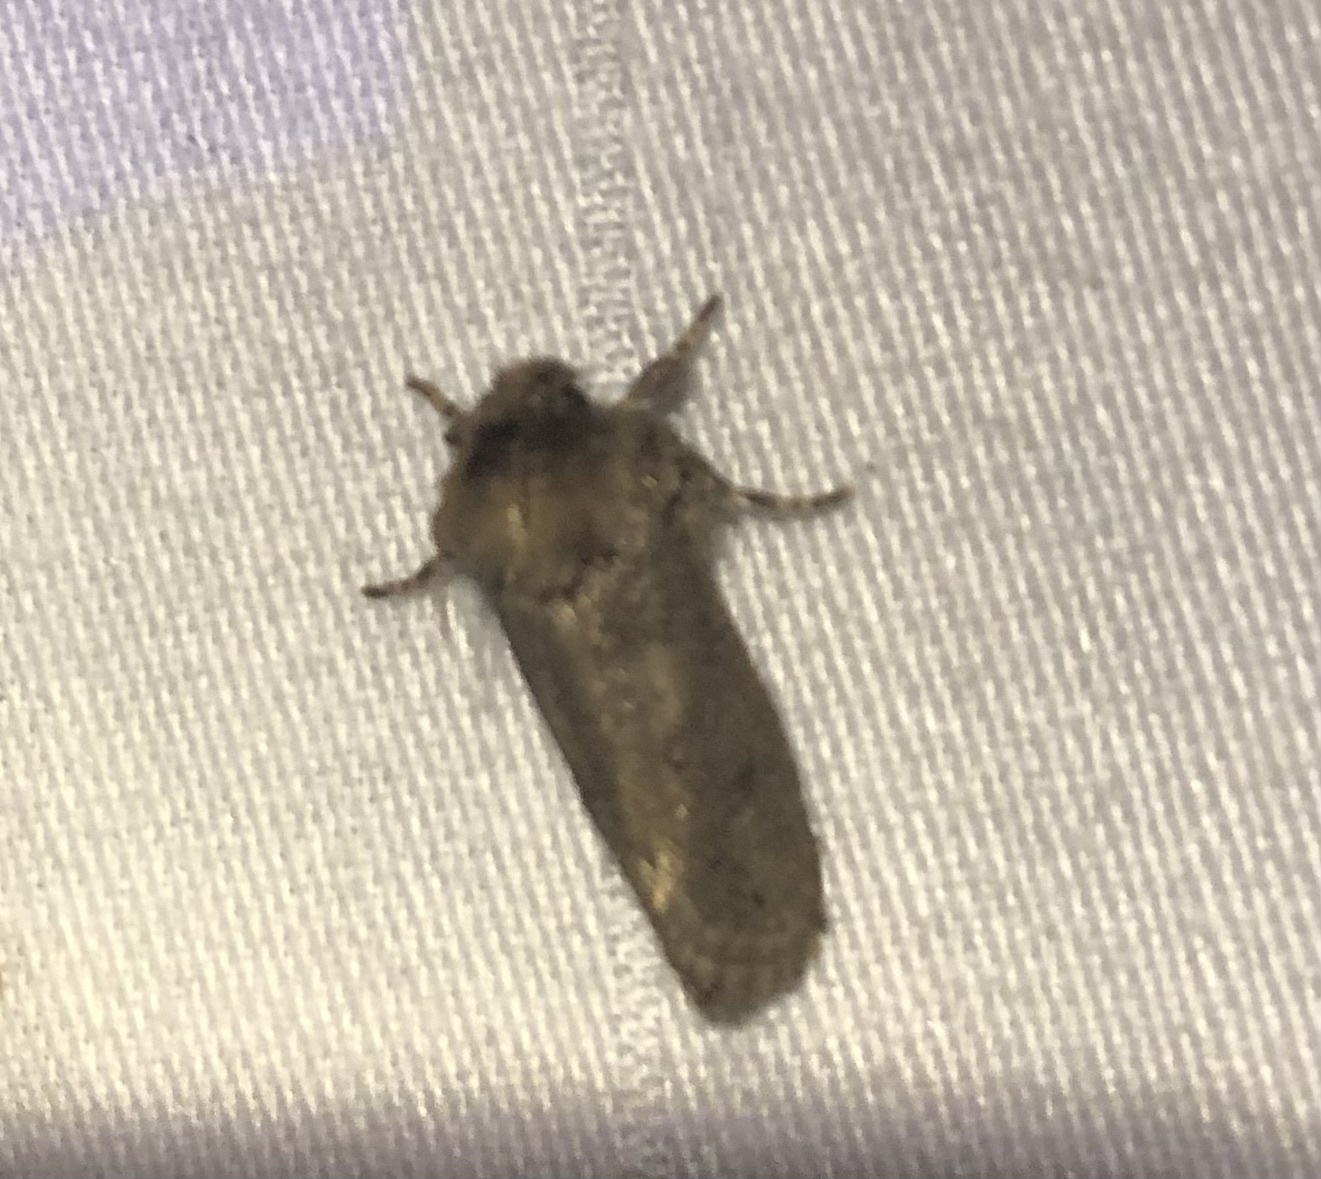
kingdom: Animalia
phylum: Arthropoda
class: Insecta
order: Lepidoptera
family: Tineidae
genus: Acrolophus
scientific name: Acrolophus arcanella
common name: Arcane grass tubeworm moth
